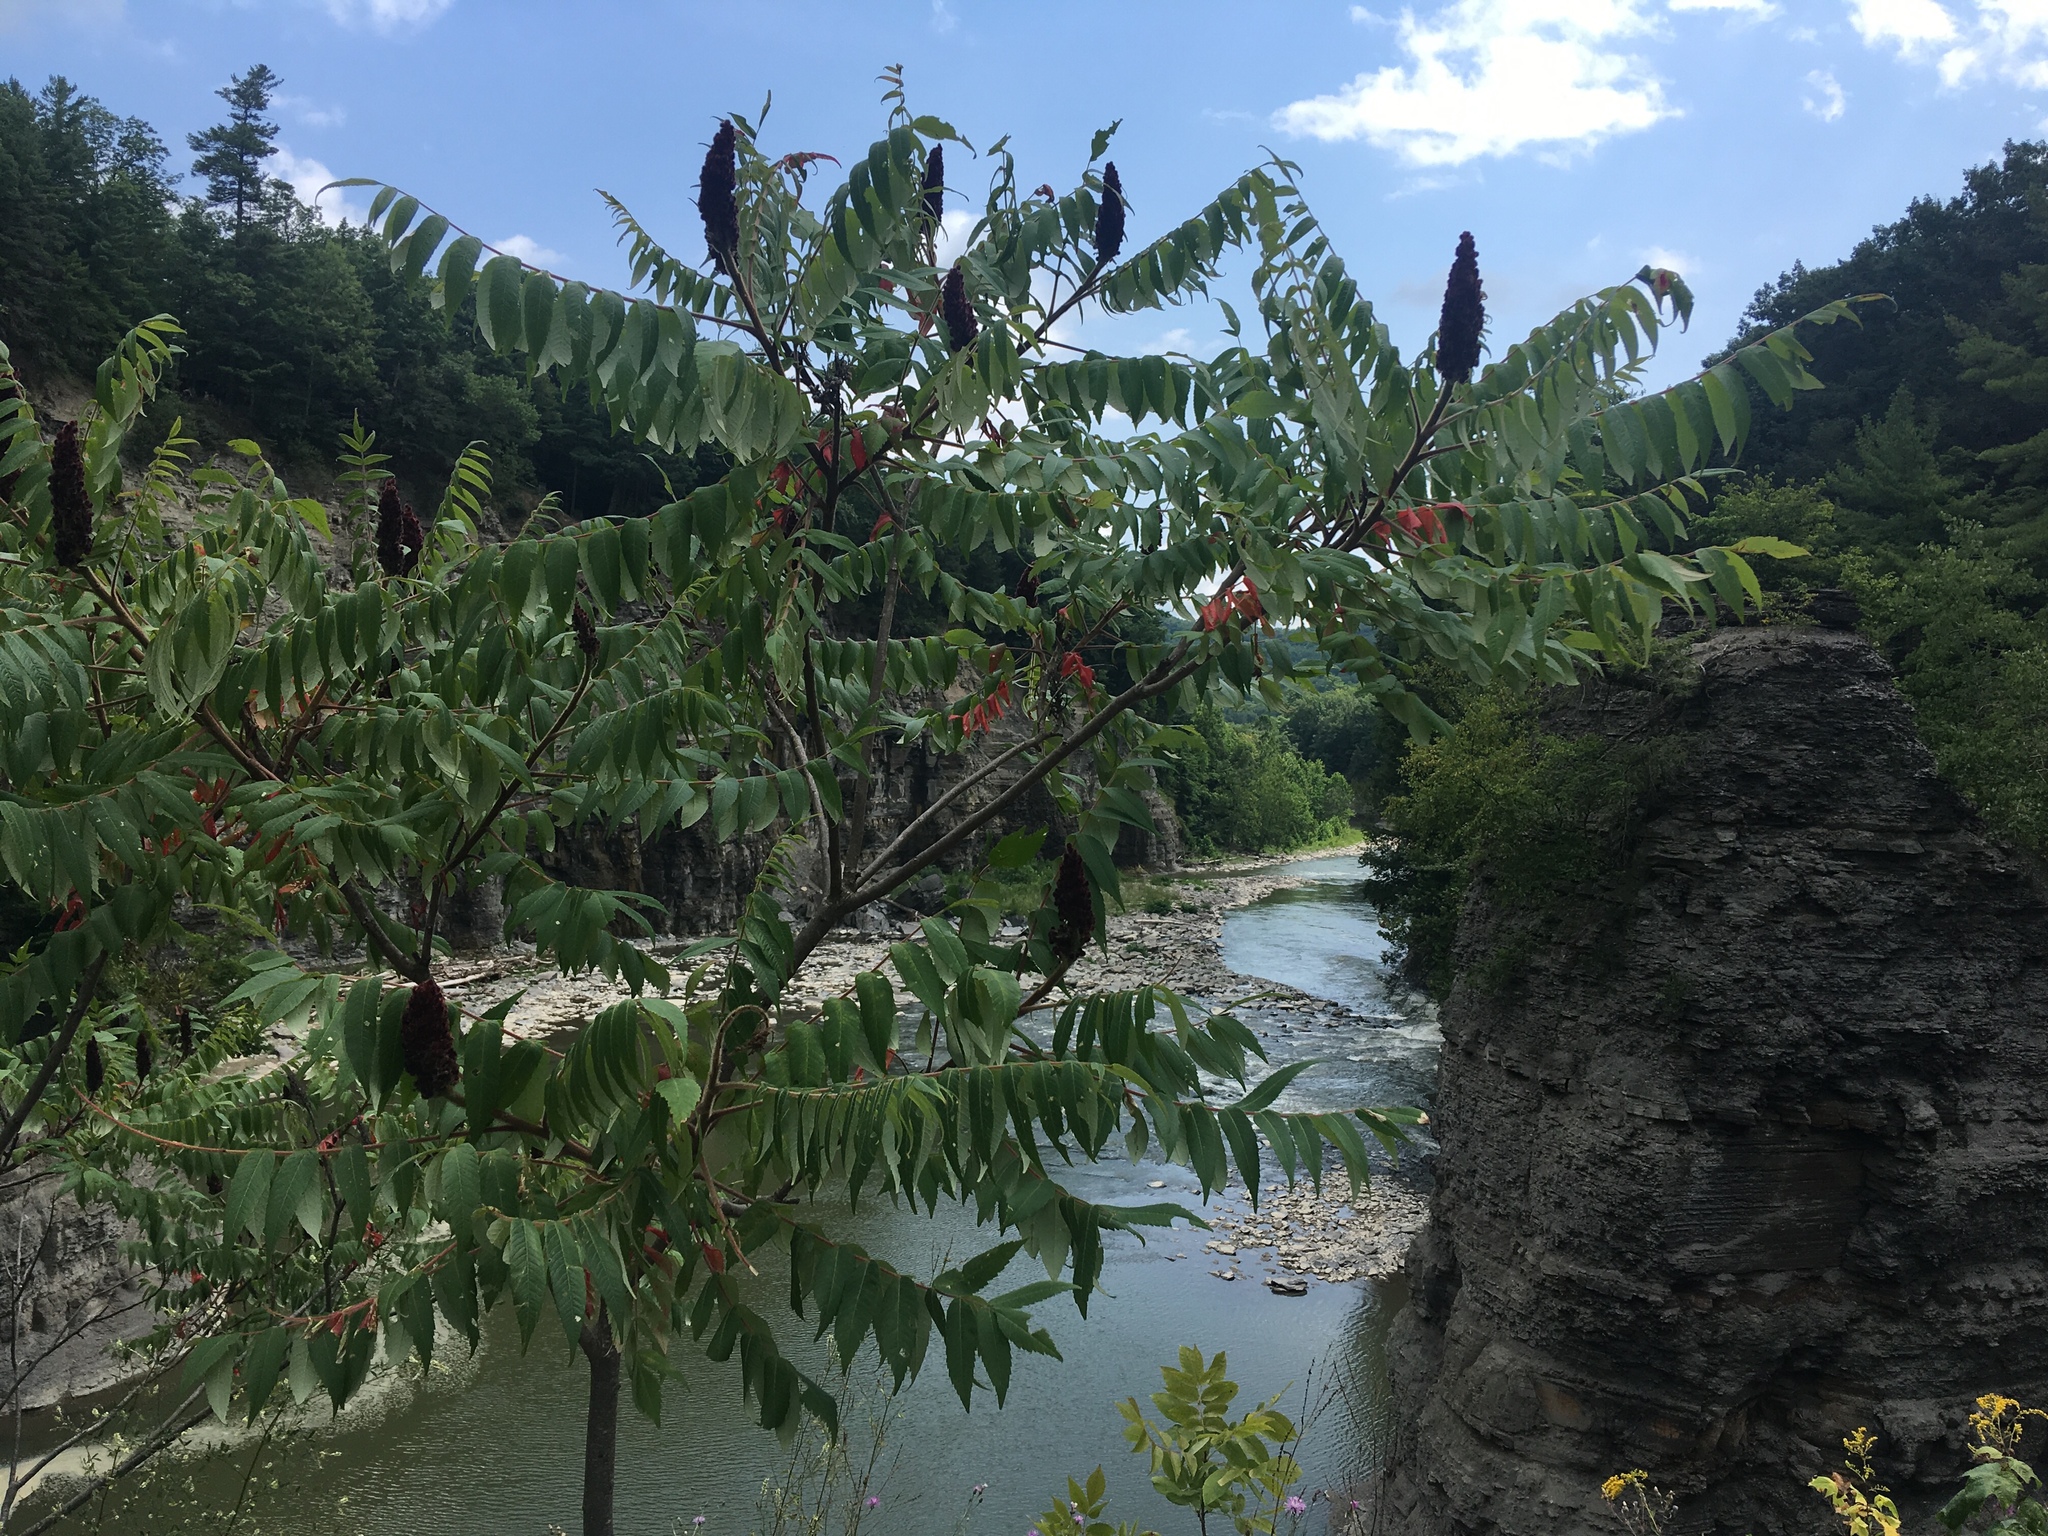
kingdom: Plantae
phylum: Tracheophyta
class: Magnoliopsida
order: Sapindales
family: Anacardiaceae
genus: Rhus
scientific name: Rhus typhina
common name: Staghorn sumac
